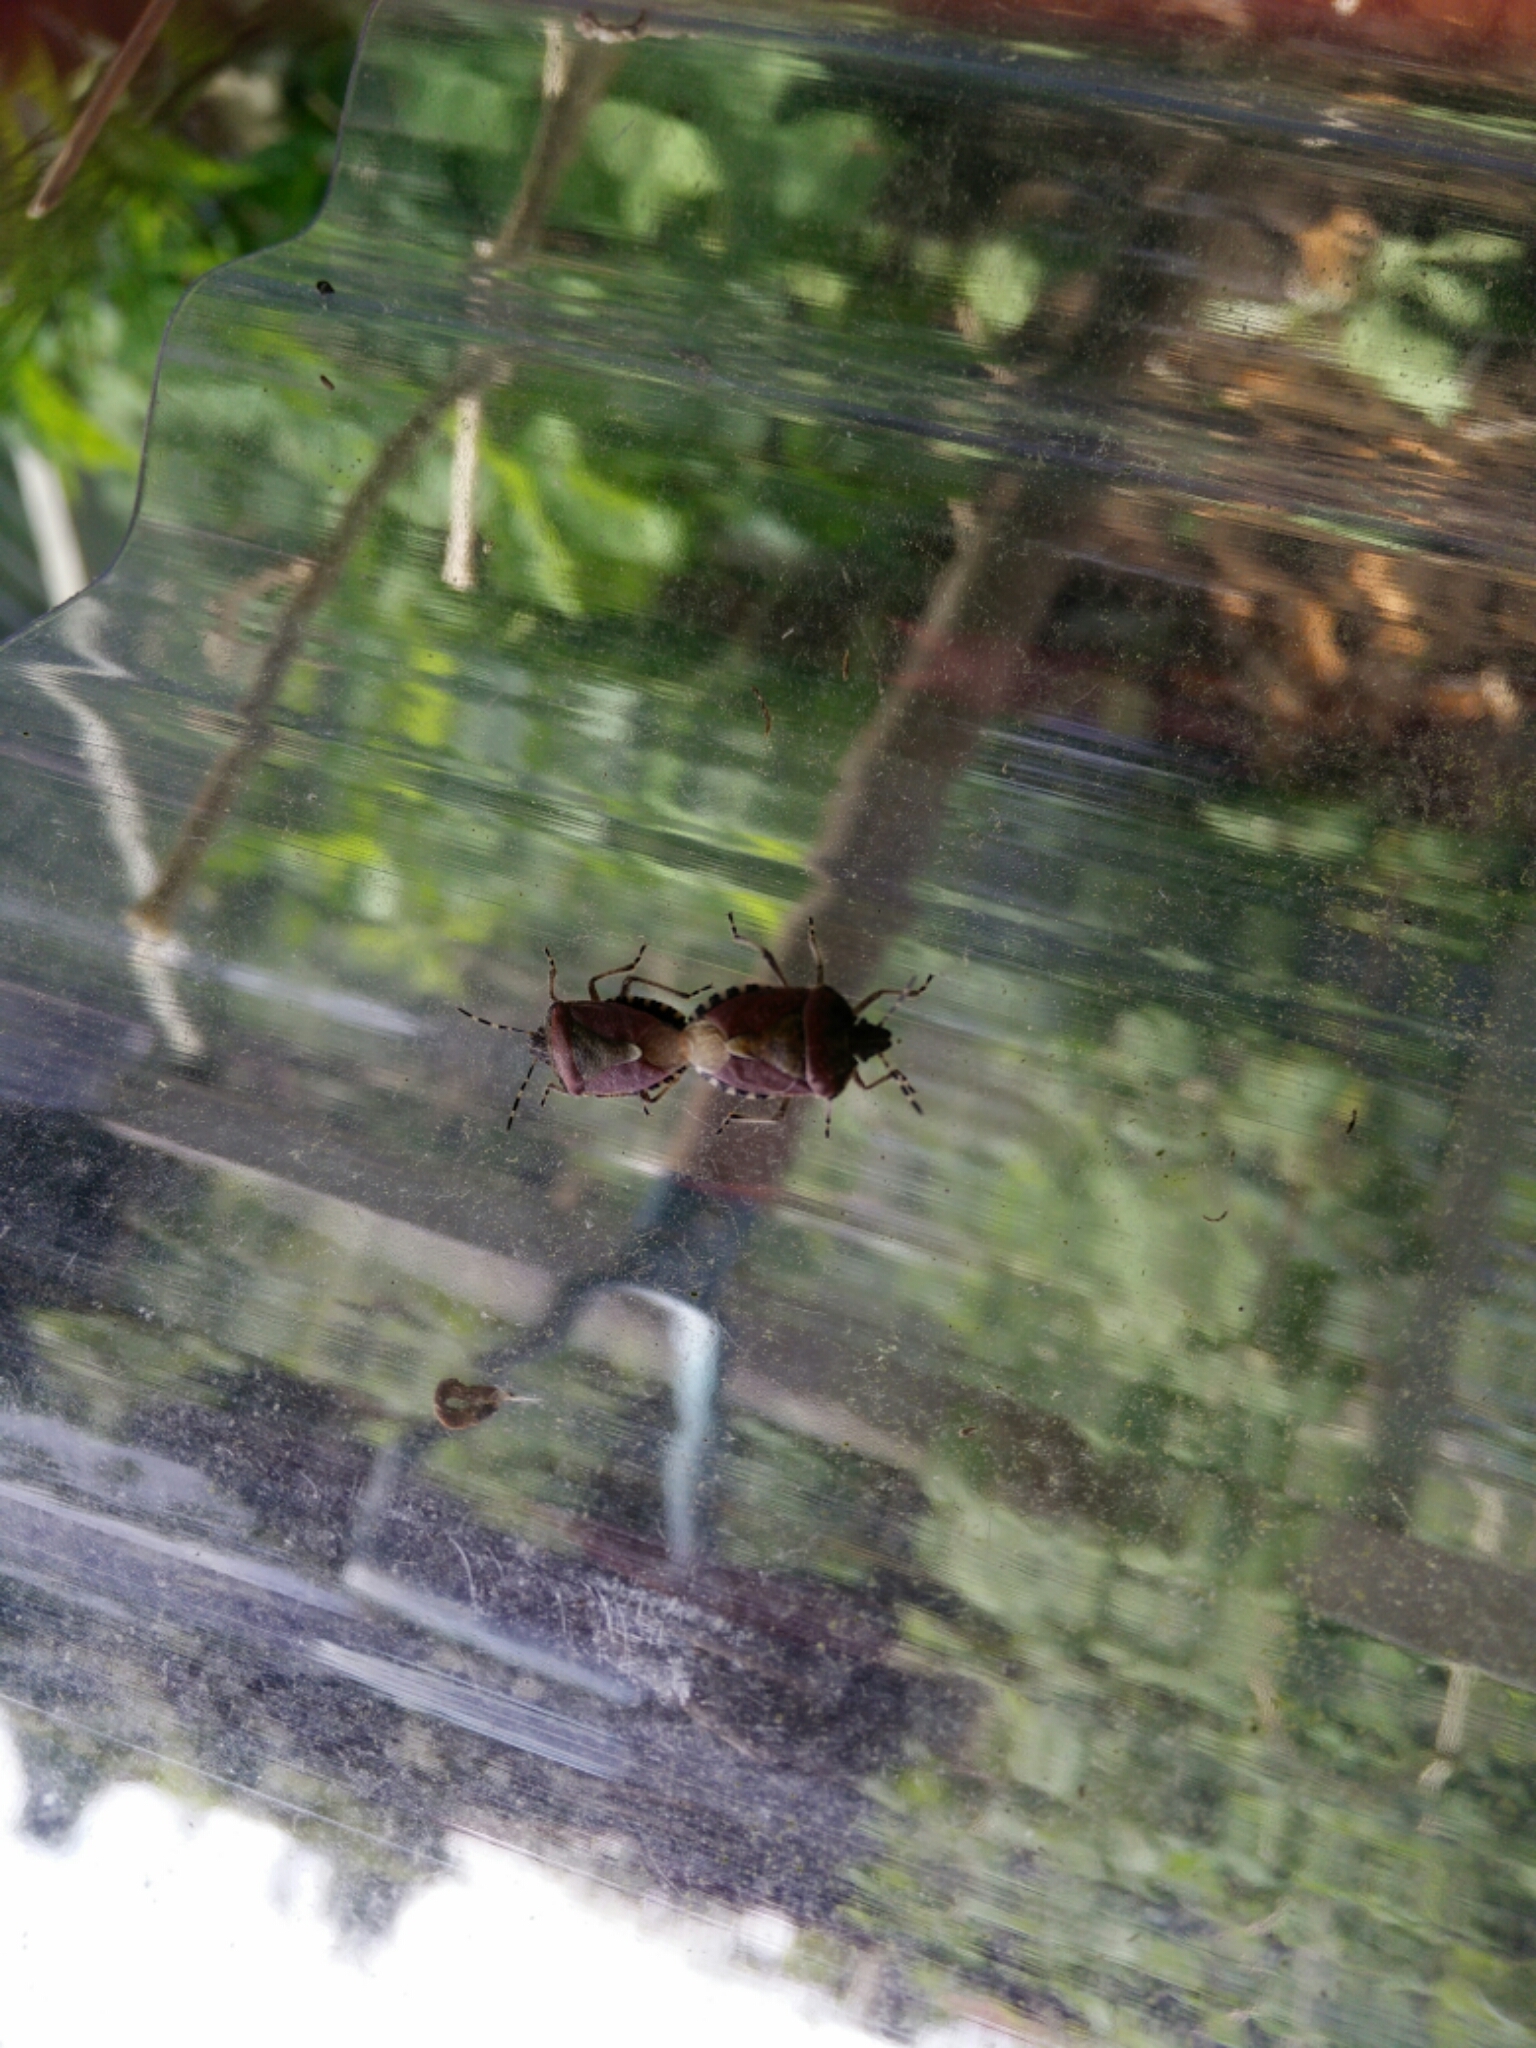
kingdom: Animalia
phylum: Arthropoda
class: Insecta
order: Hemiptera
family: Pentatomidae
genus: Dolycoris
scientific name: Dolycoris baccarum
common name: Sloe bug
